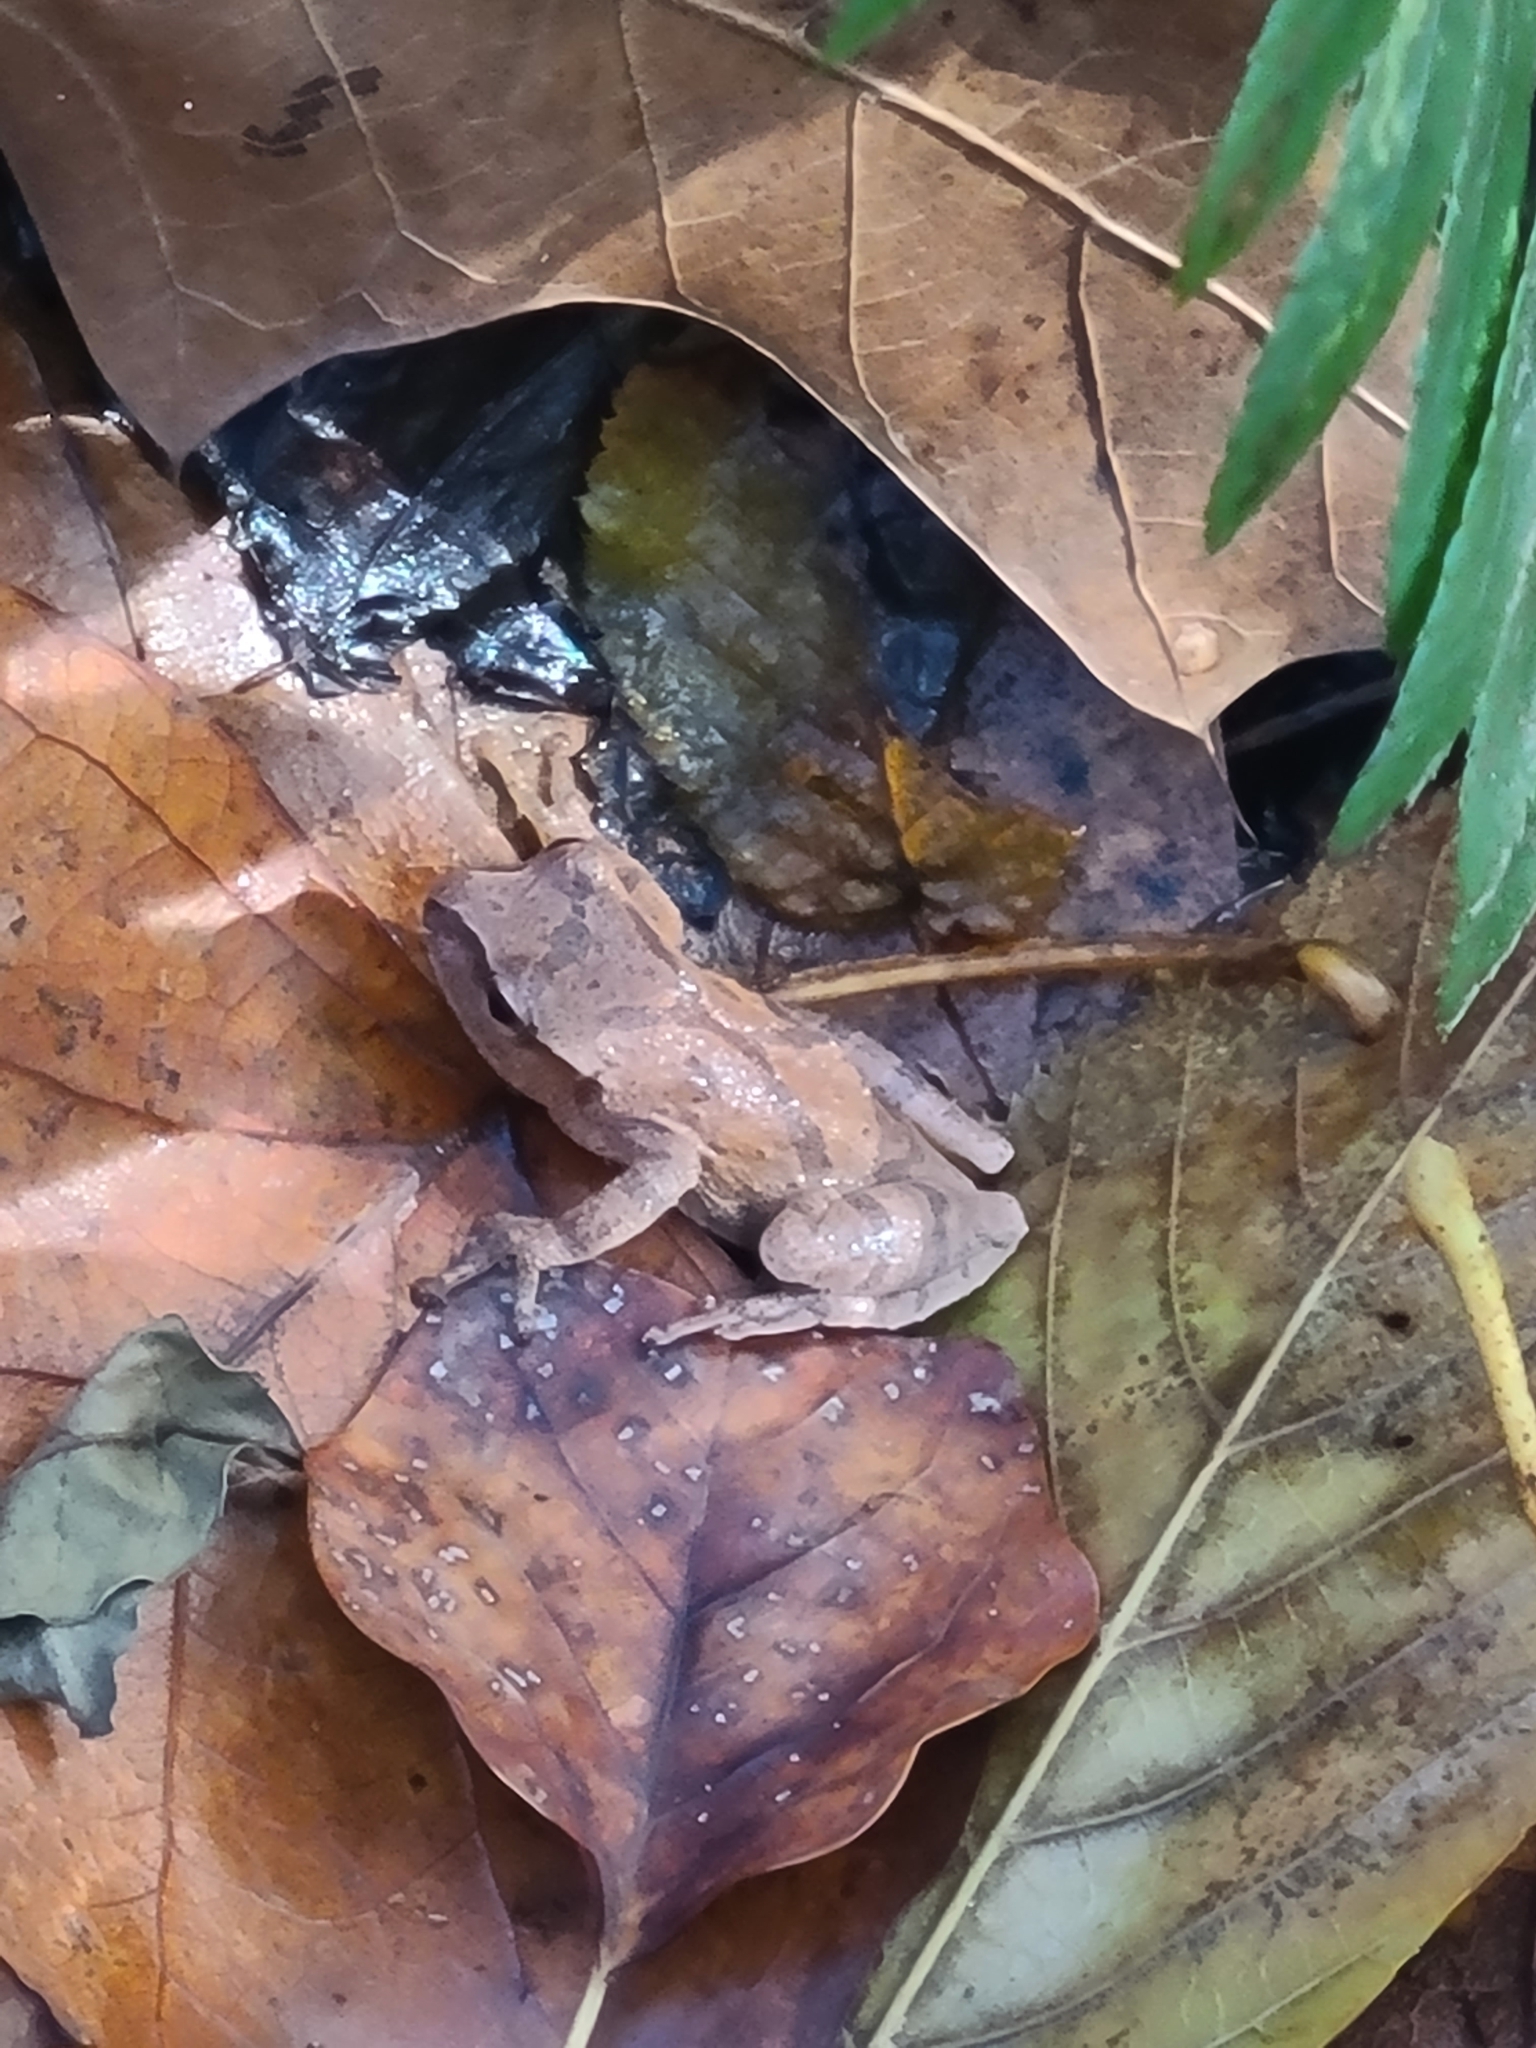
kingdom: Animalia
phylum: Chordata
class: Amphibia
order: Anura
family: Hylidae
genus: Pseudacris
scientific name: Pseudacris crucifer
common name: Spring peeper
